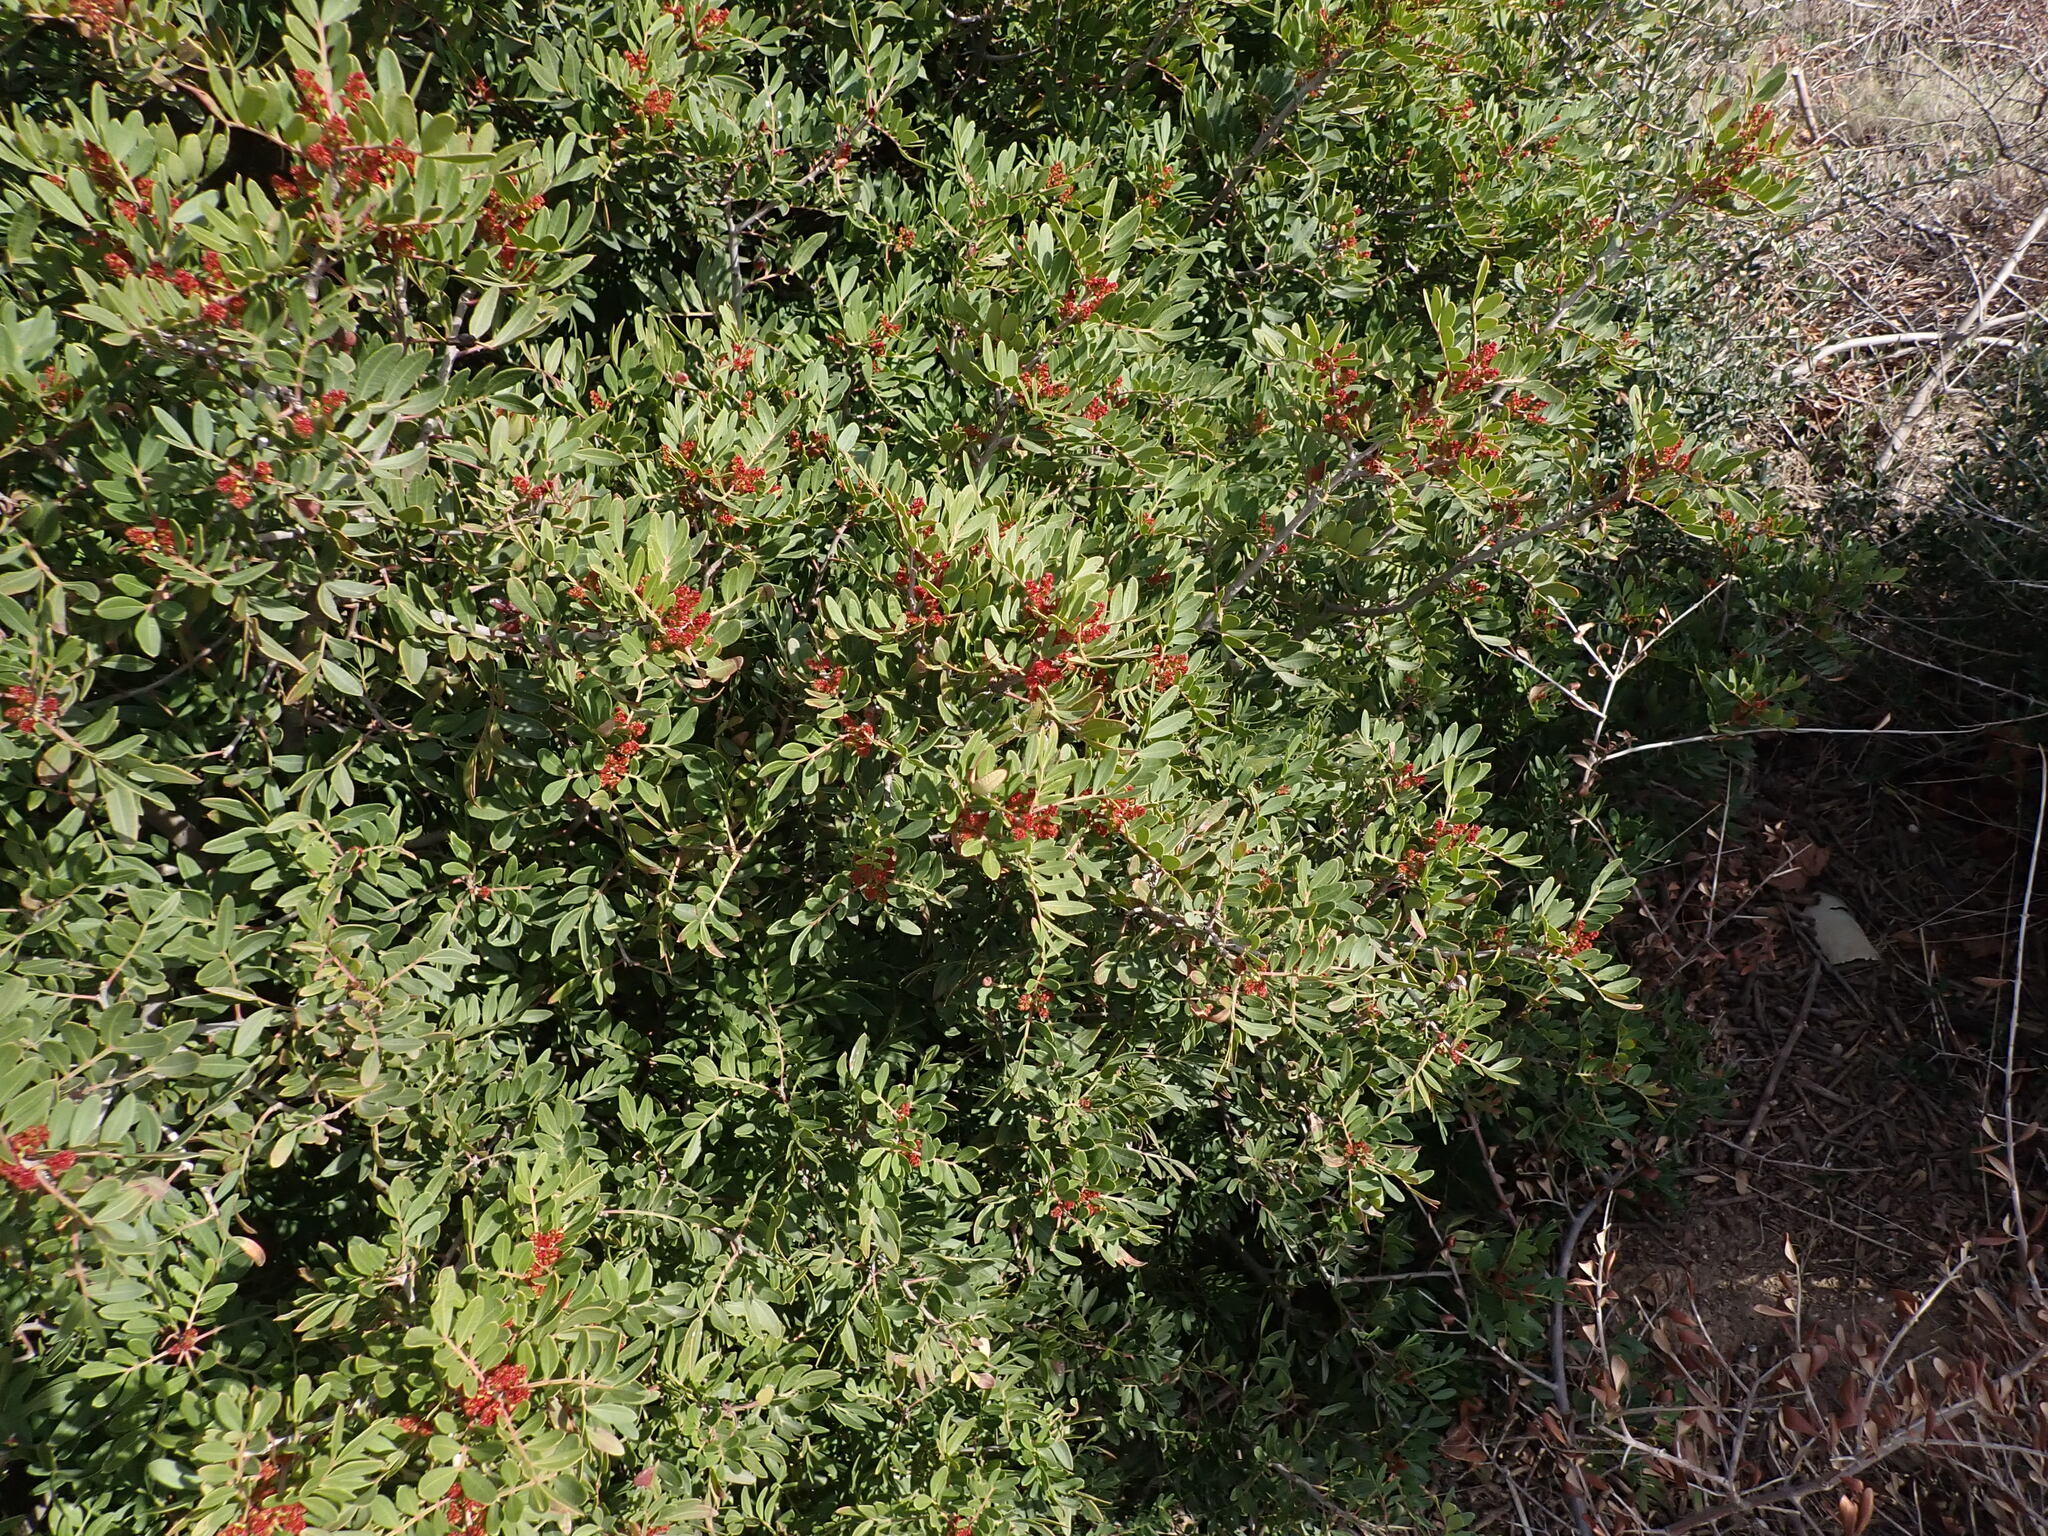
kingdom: Plantae
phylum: Tracheophyta
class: Magnoliopsida
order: Sapindales
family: Anacardiaceae
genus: Pistacia
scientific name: Pistacia lentiscus
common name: Lentisk
